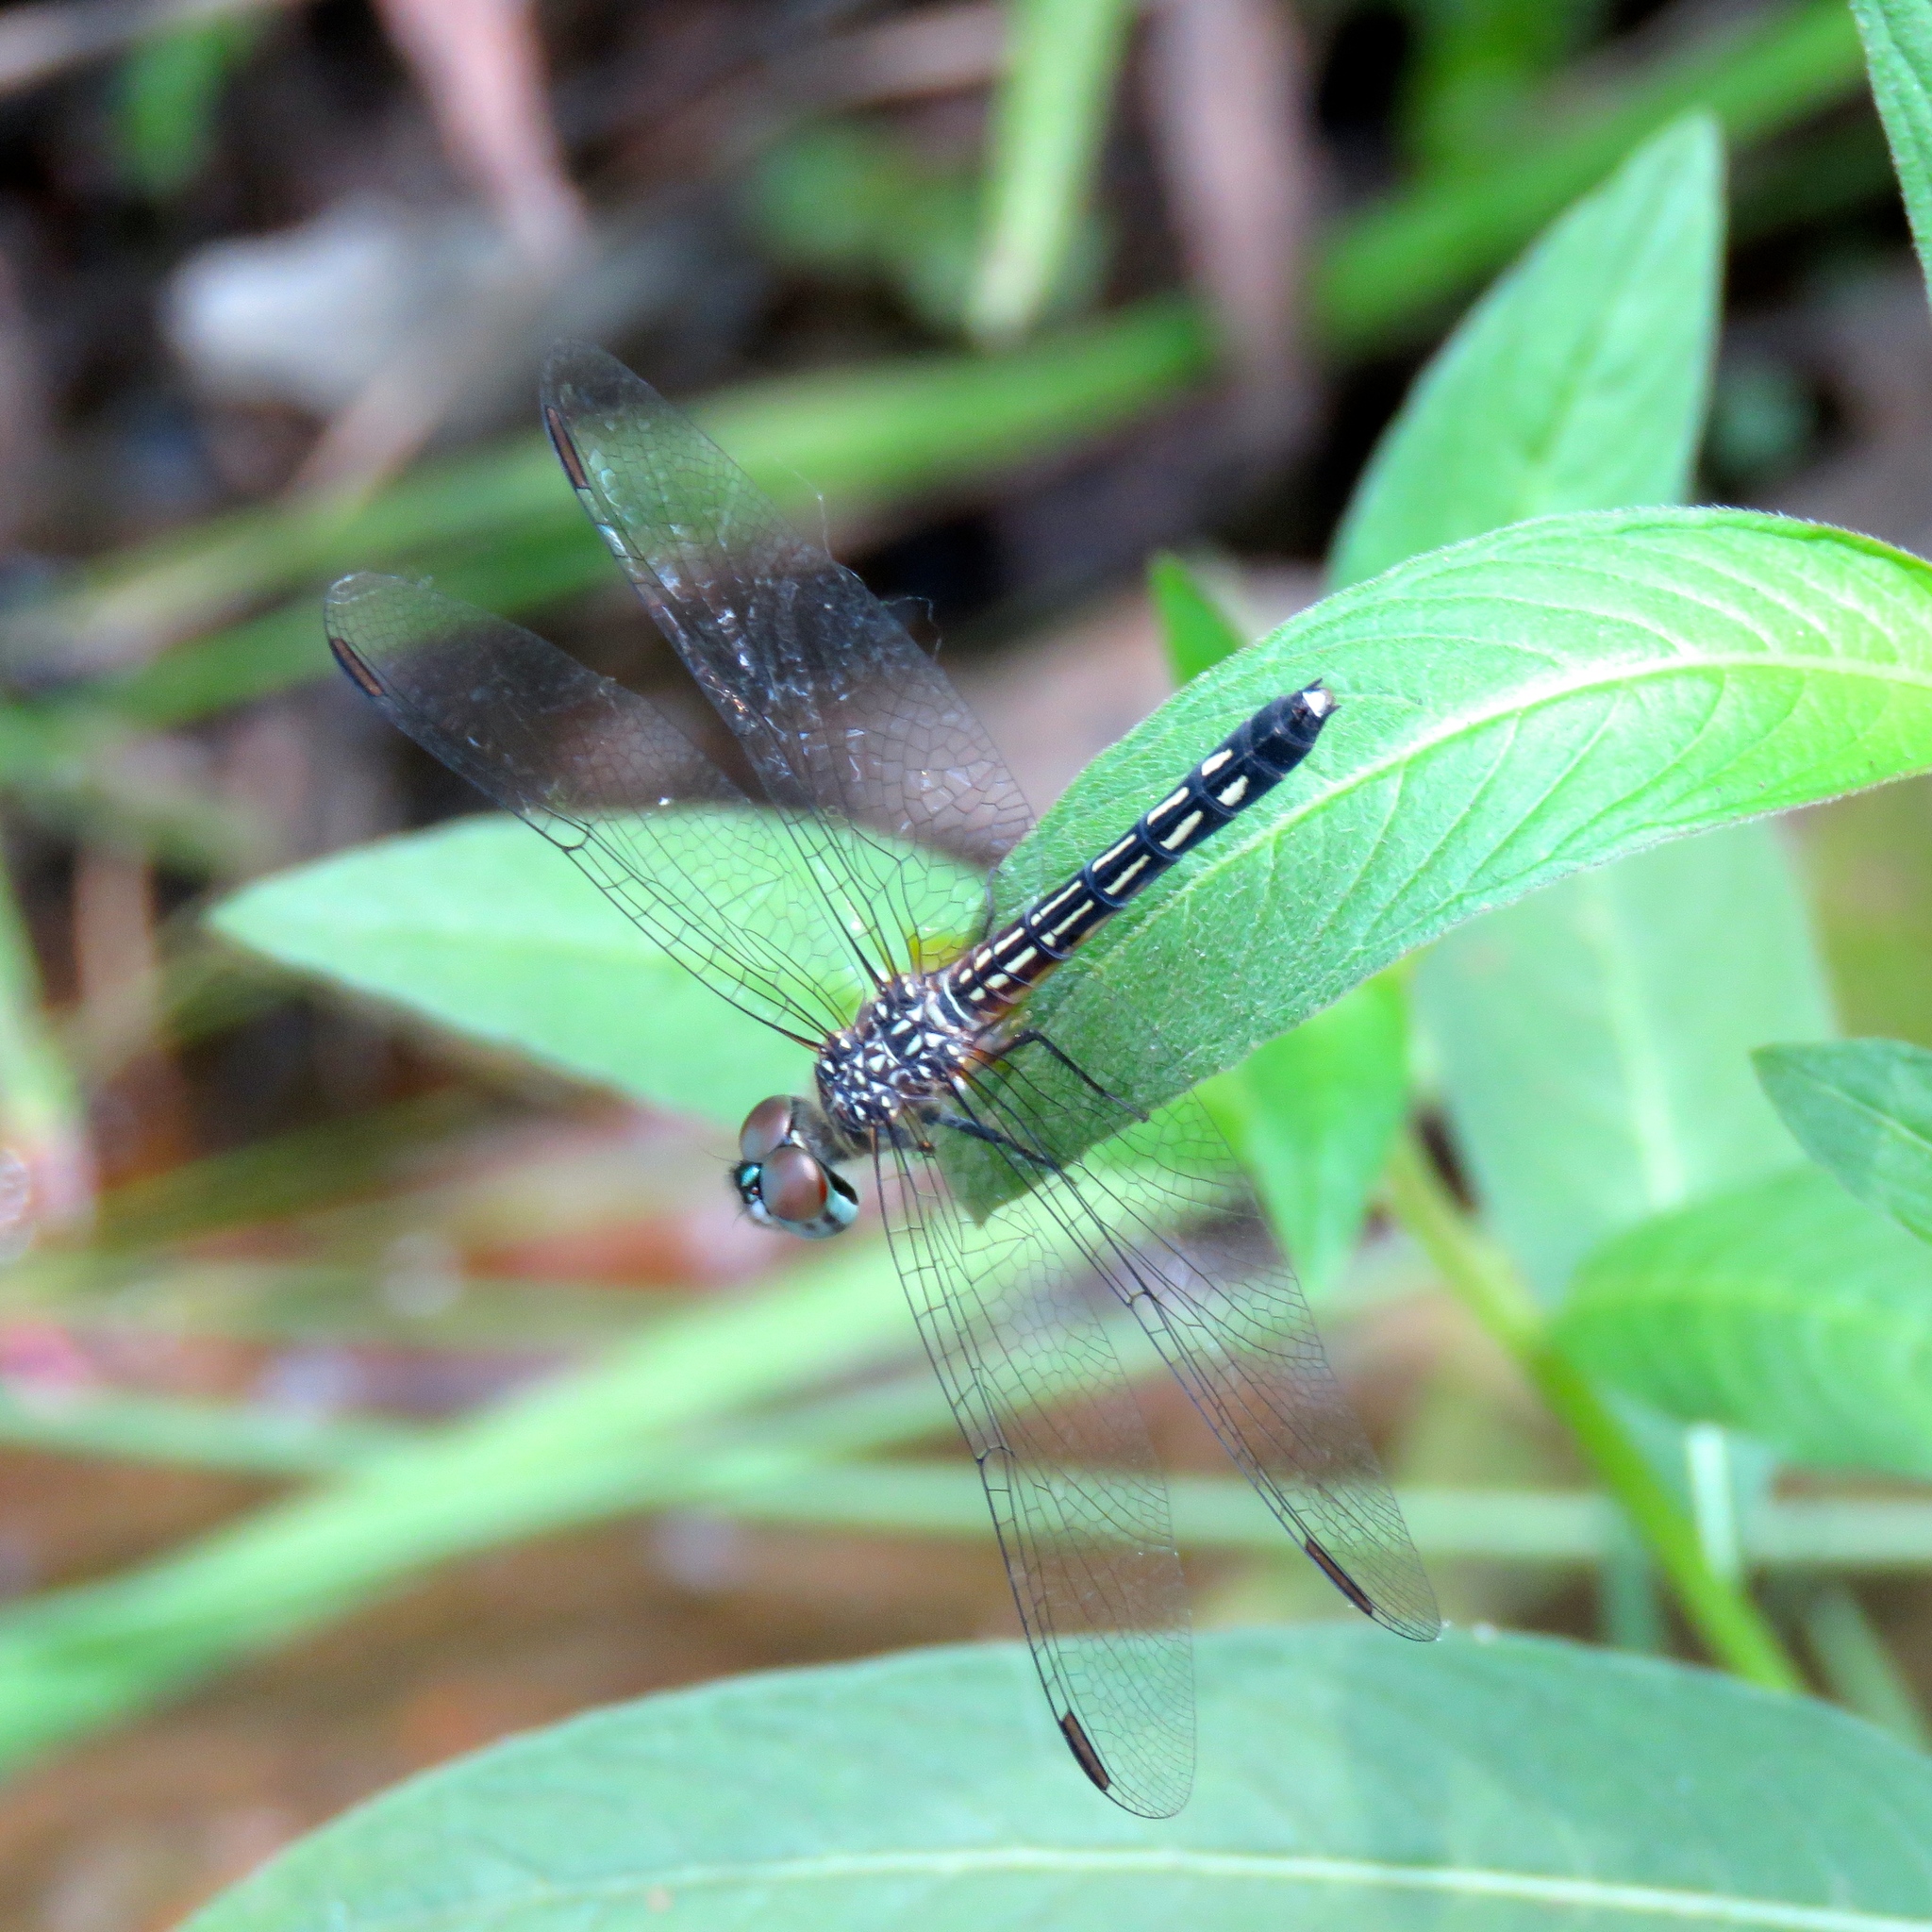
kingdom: Animalia
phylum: Arthropoda
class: Insecta
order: Odonata
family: Libellulidae
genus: Pachydiplax
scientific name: Pachydiplax longipennis
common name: Blue dasher
